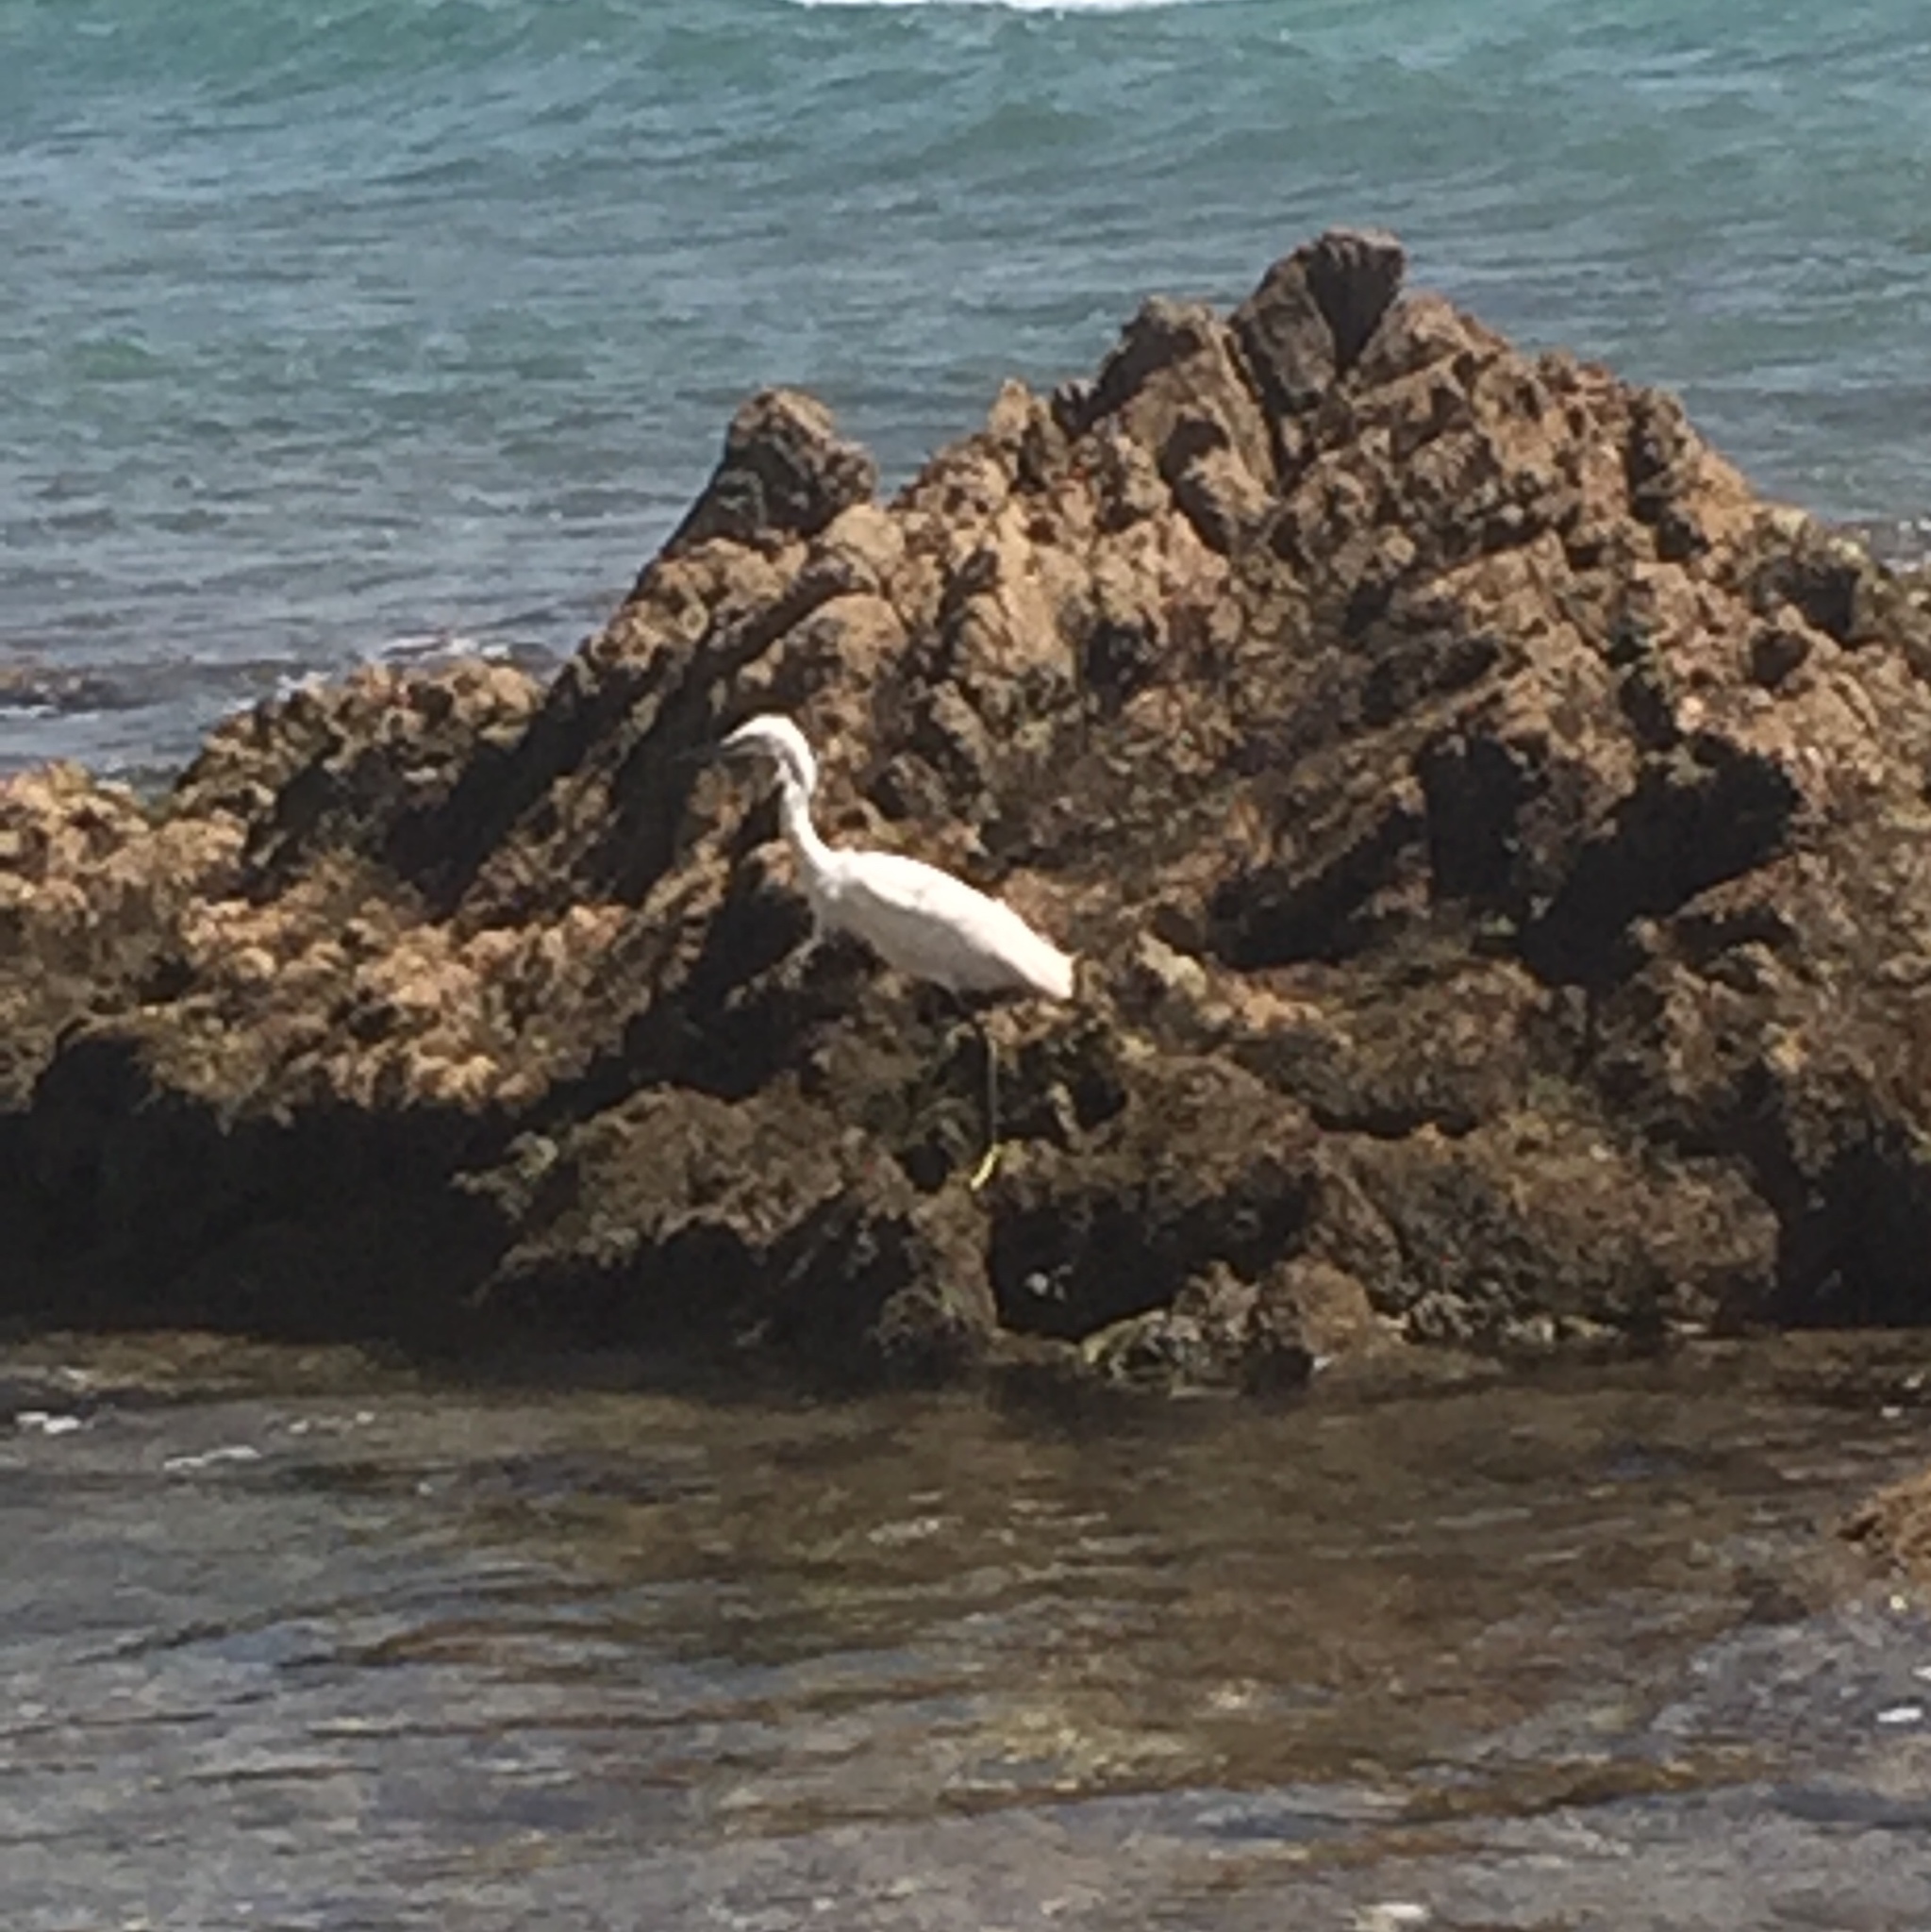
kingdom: Animalia
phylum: Chordata
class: Aves
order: Pelecaniformes
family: Ardeidae
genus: Egretta
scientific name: Egretta thula
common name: Snowy egret
